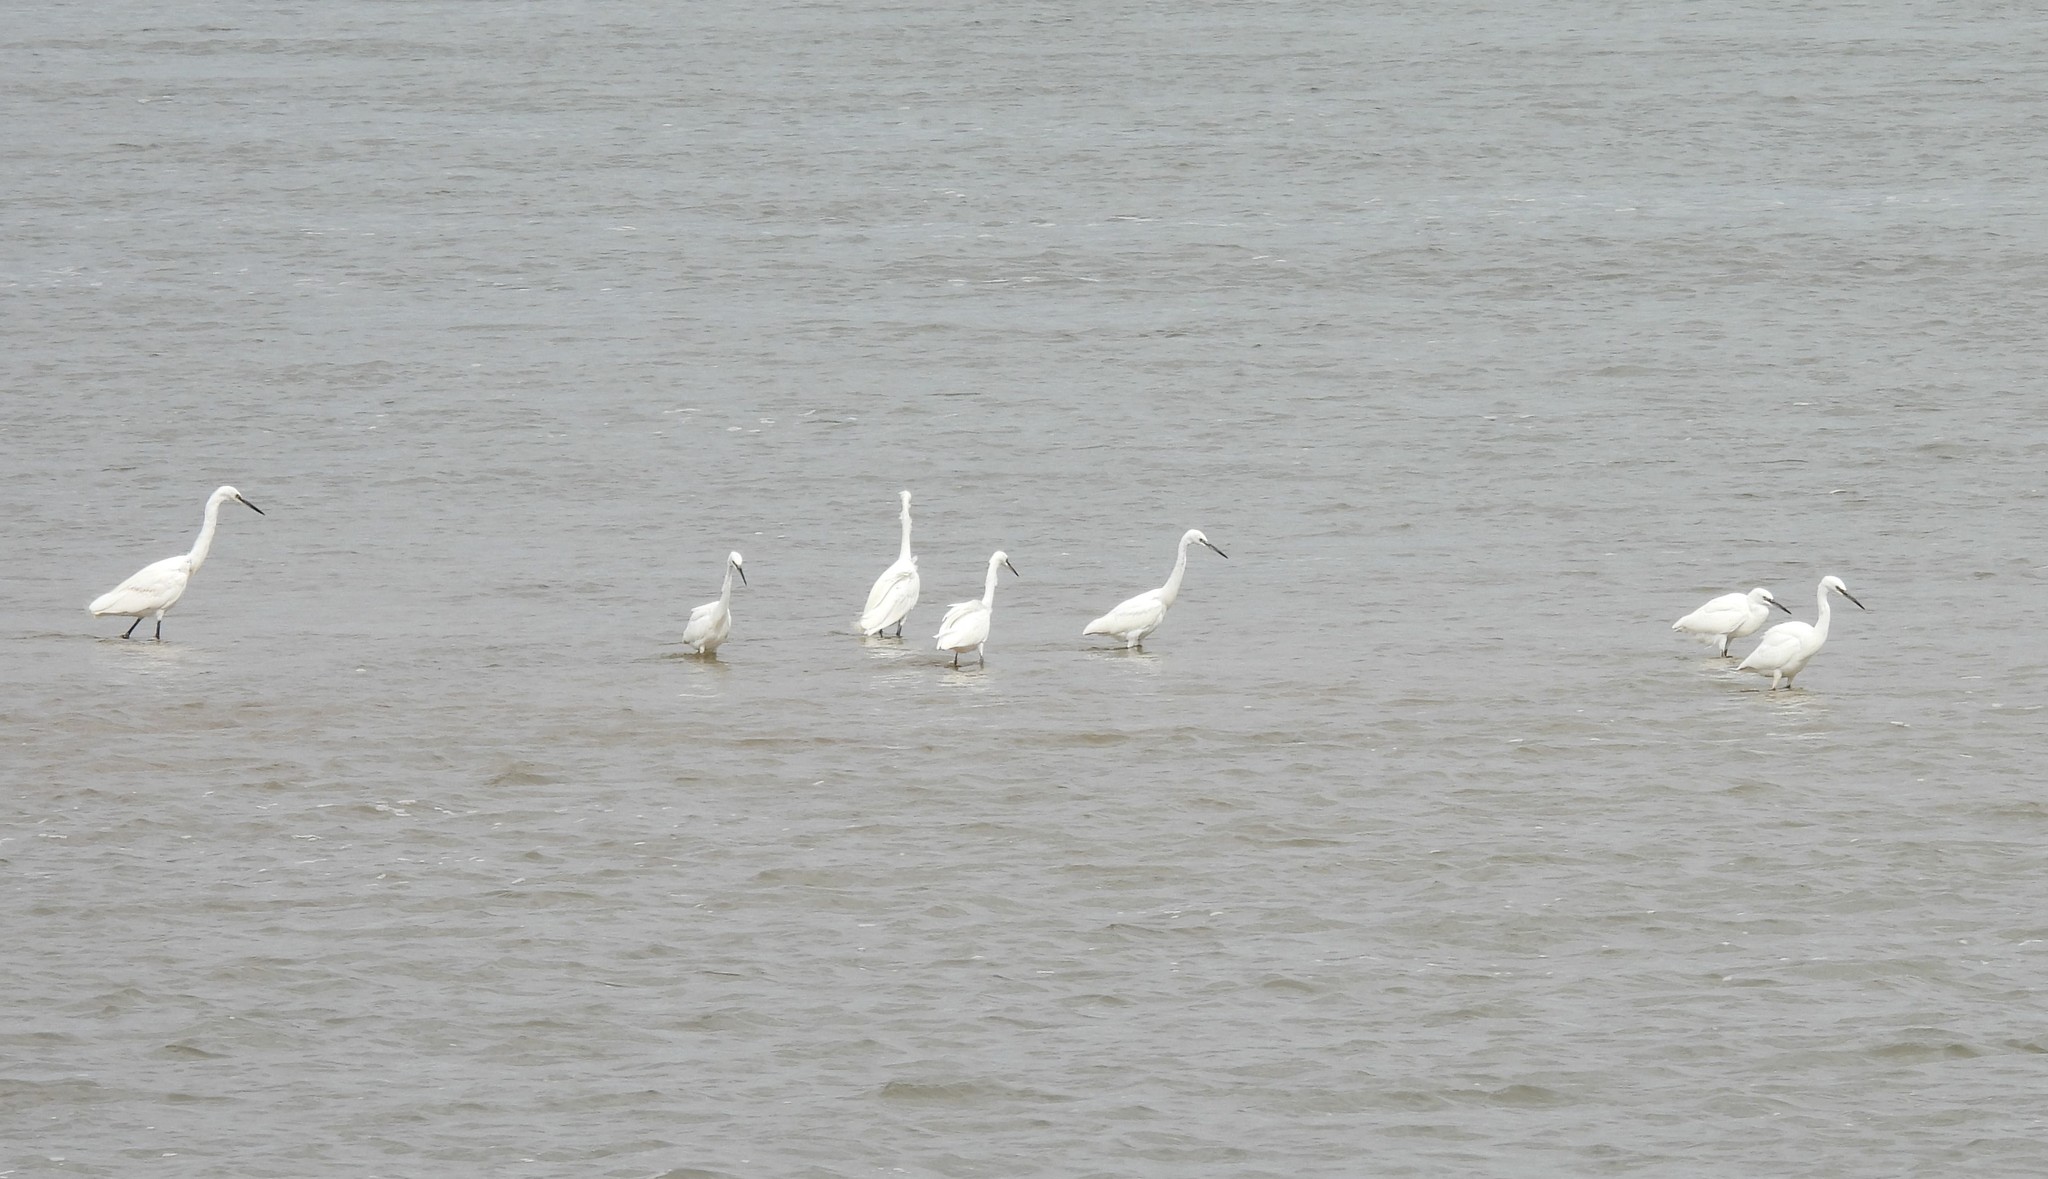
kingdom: Animalia
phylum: Chordata
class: Aves
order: Pelecaniformes
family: Ardeidae
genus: Egretta
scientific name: Egretta garzetta
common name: Little egret
